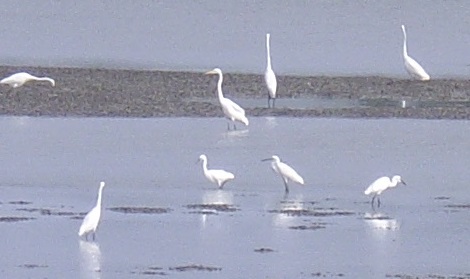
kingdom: Animalia
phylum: Chordata
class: Aves
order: Pelecaniformes
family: Ardeidae
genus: Ardea
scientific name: Ardea alba
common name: Great egret
